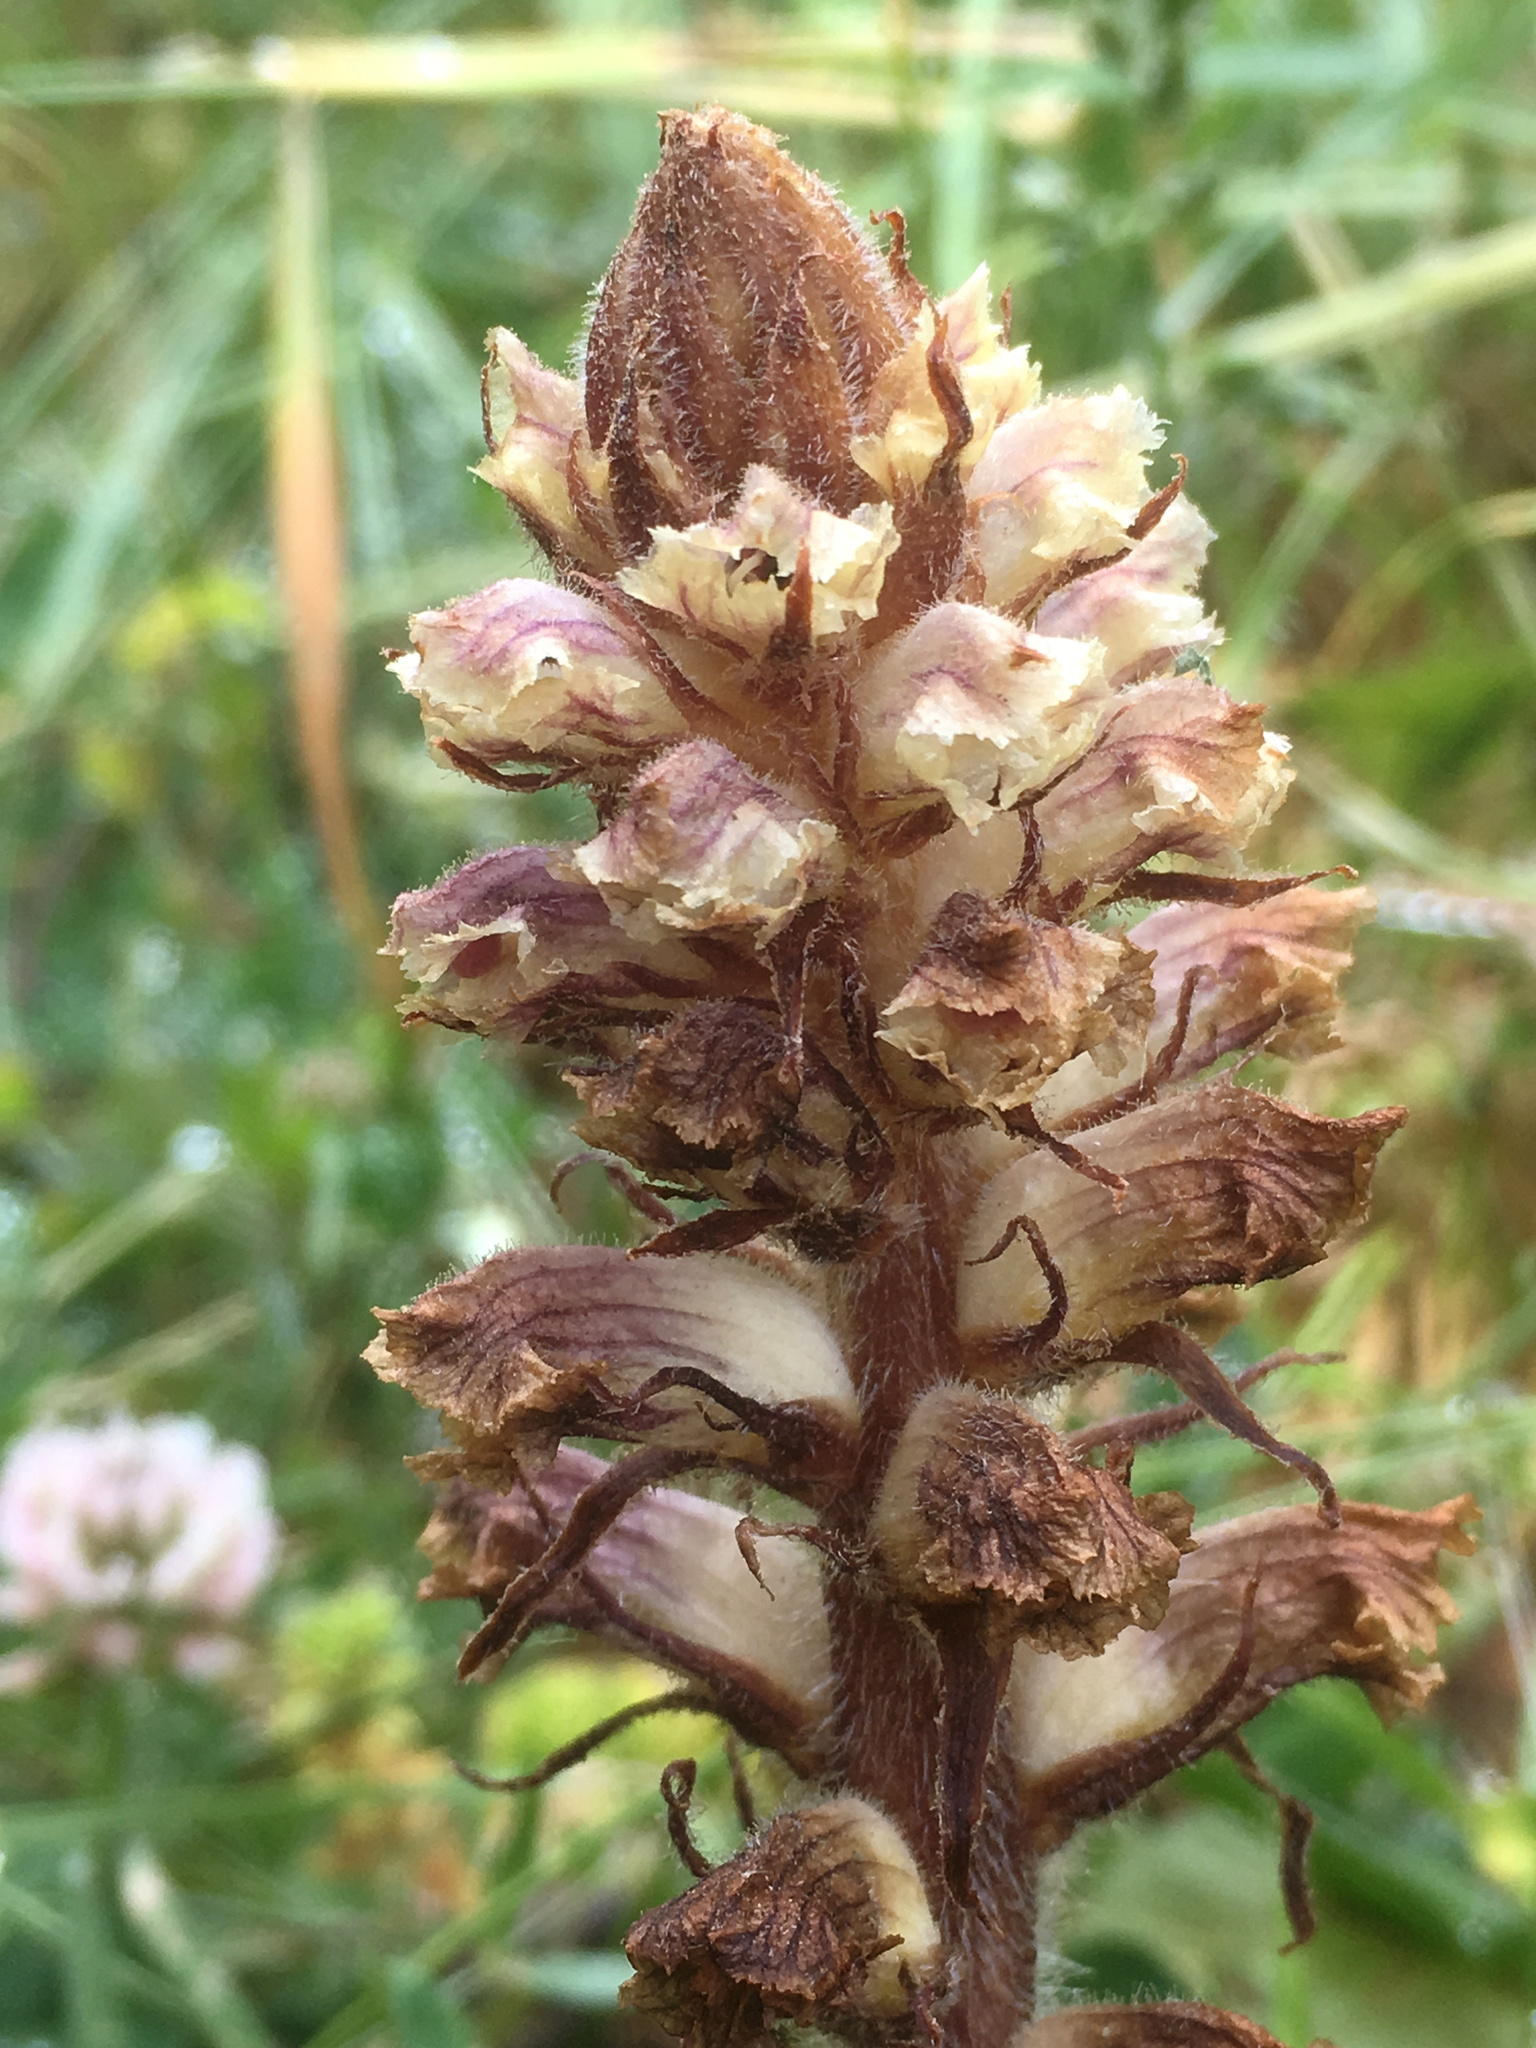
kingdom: Plantae
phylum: Tracheophyta
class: Magnoliopsida
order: Lamiales
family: Orobanchaceae
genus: Orobanche
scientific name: Orobanche minor
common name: Common broomrape
